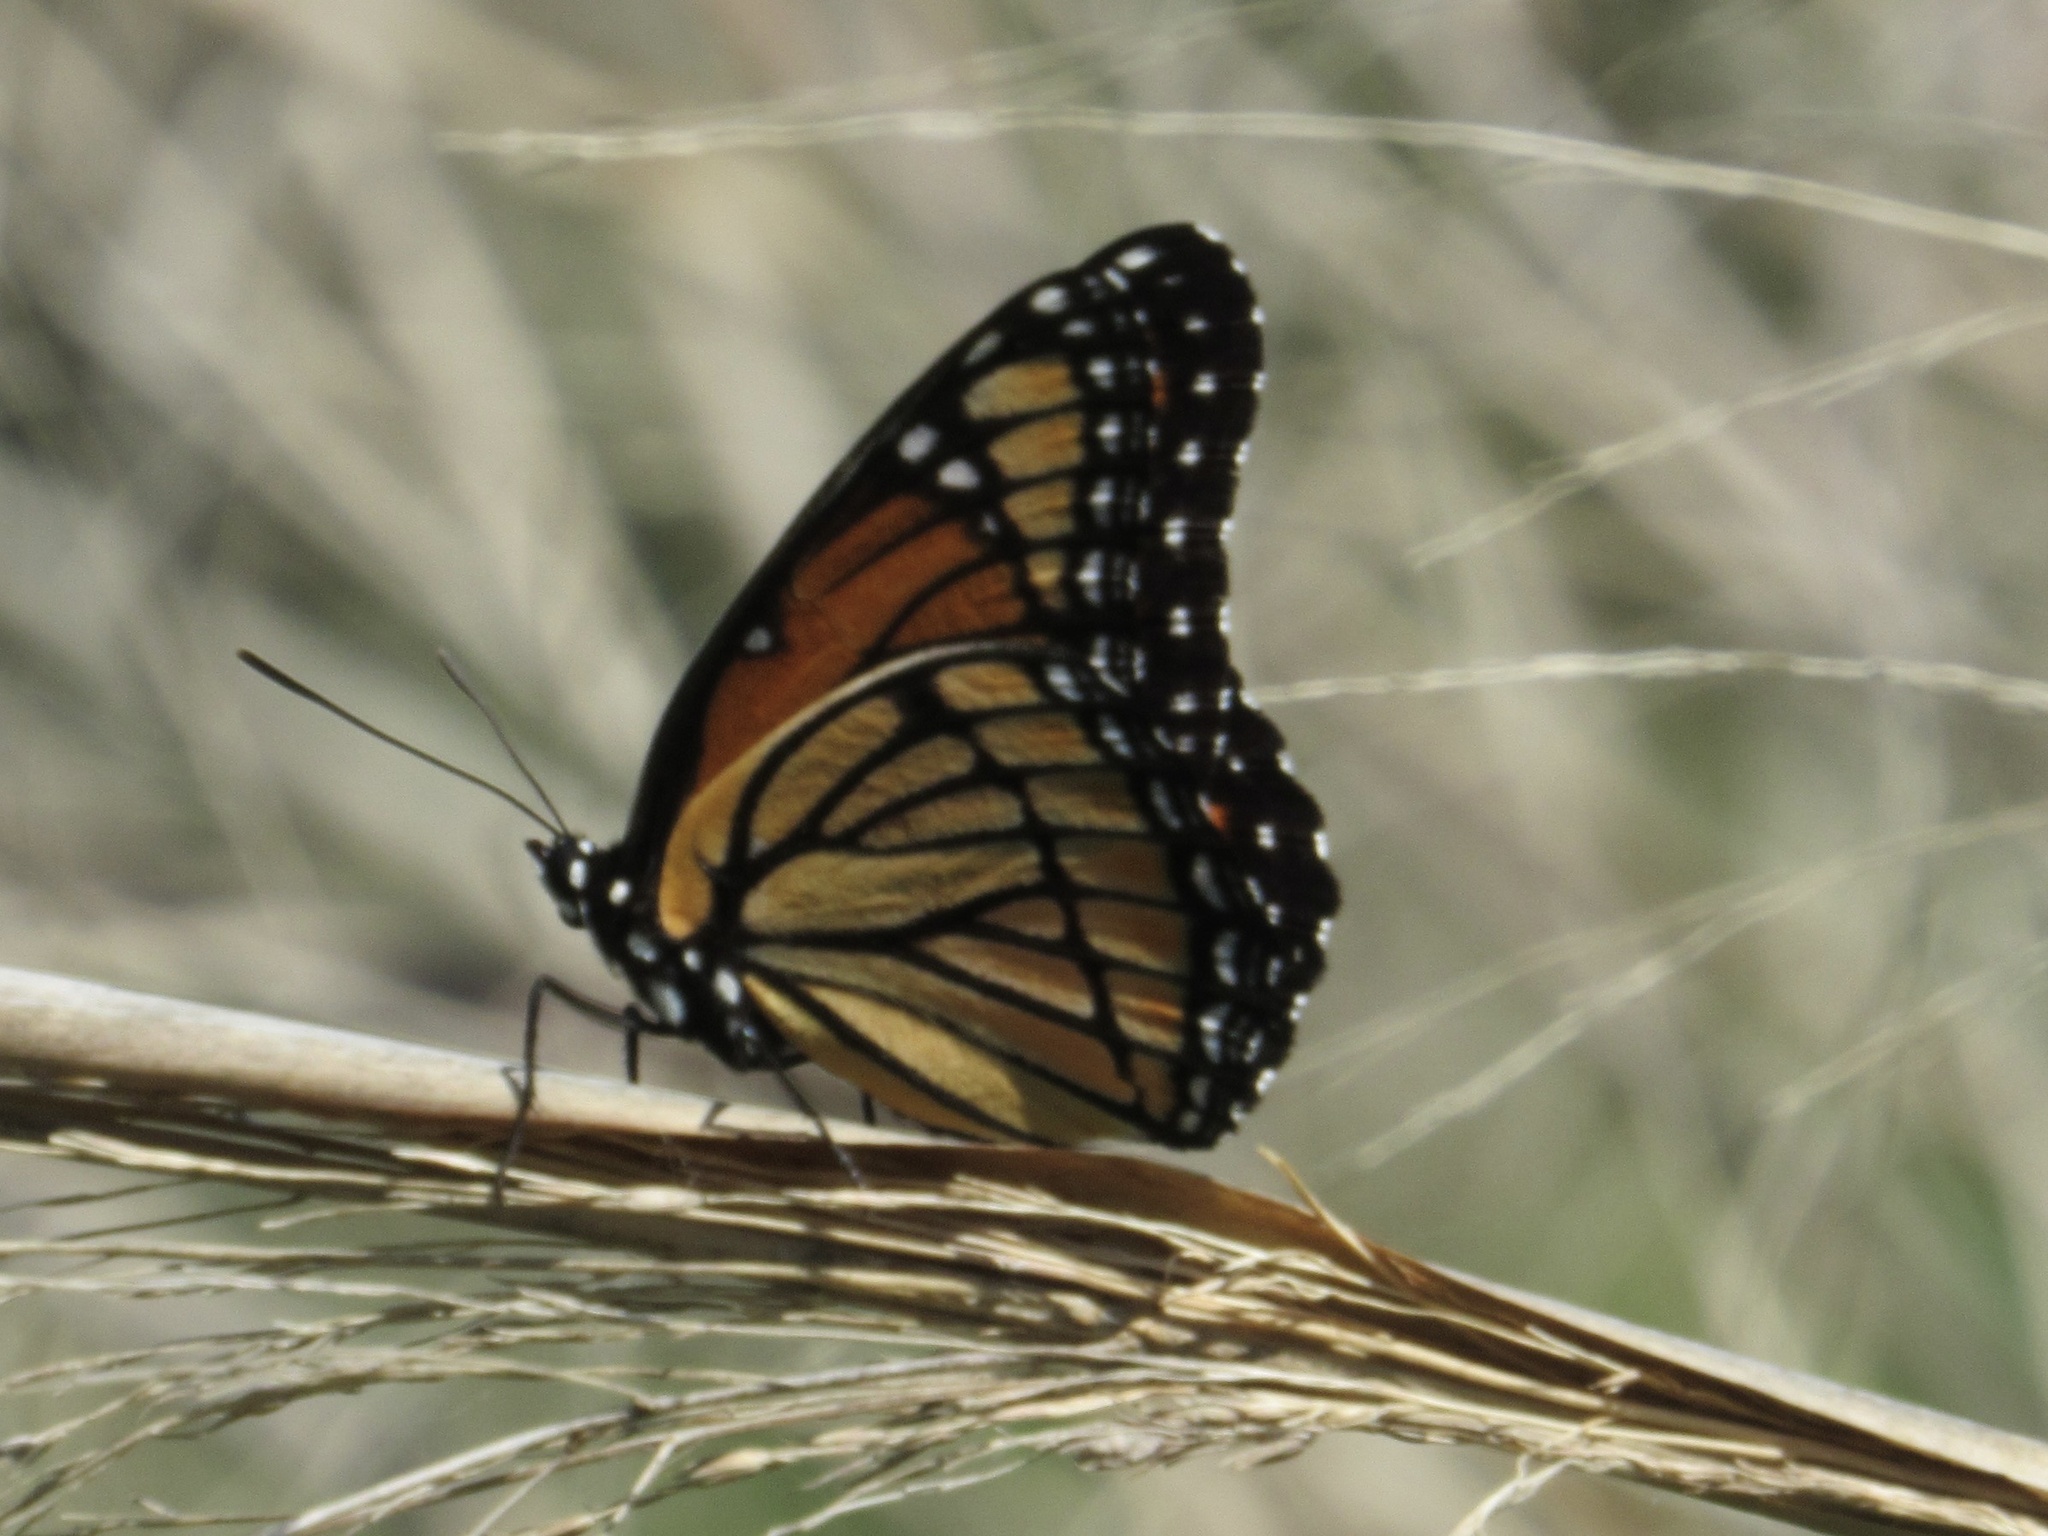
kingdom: Animalia
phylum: Arthropoda
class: Insecta
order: Lepidoptera
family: Nymphalidae
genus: Limenitis
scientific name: Limenitis archippus
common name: Viceroy
